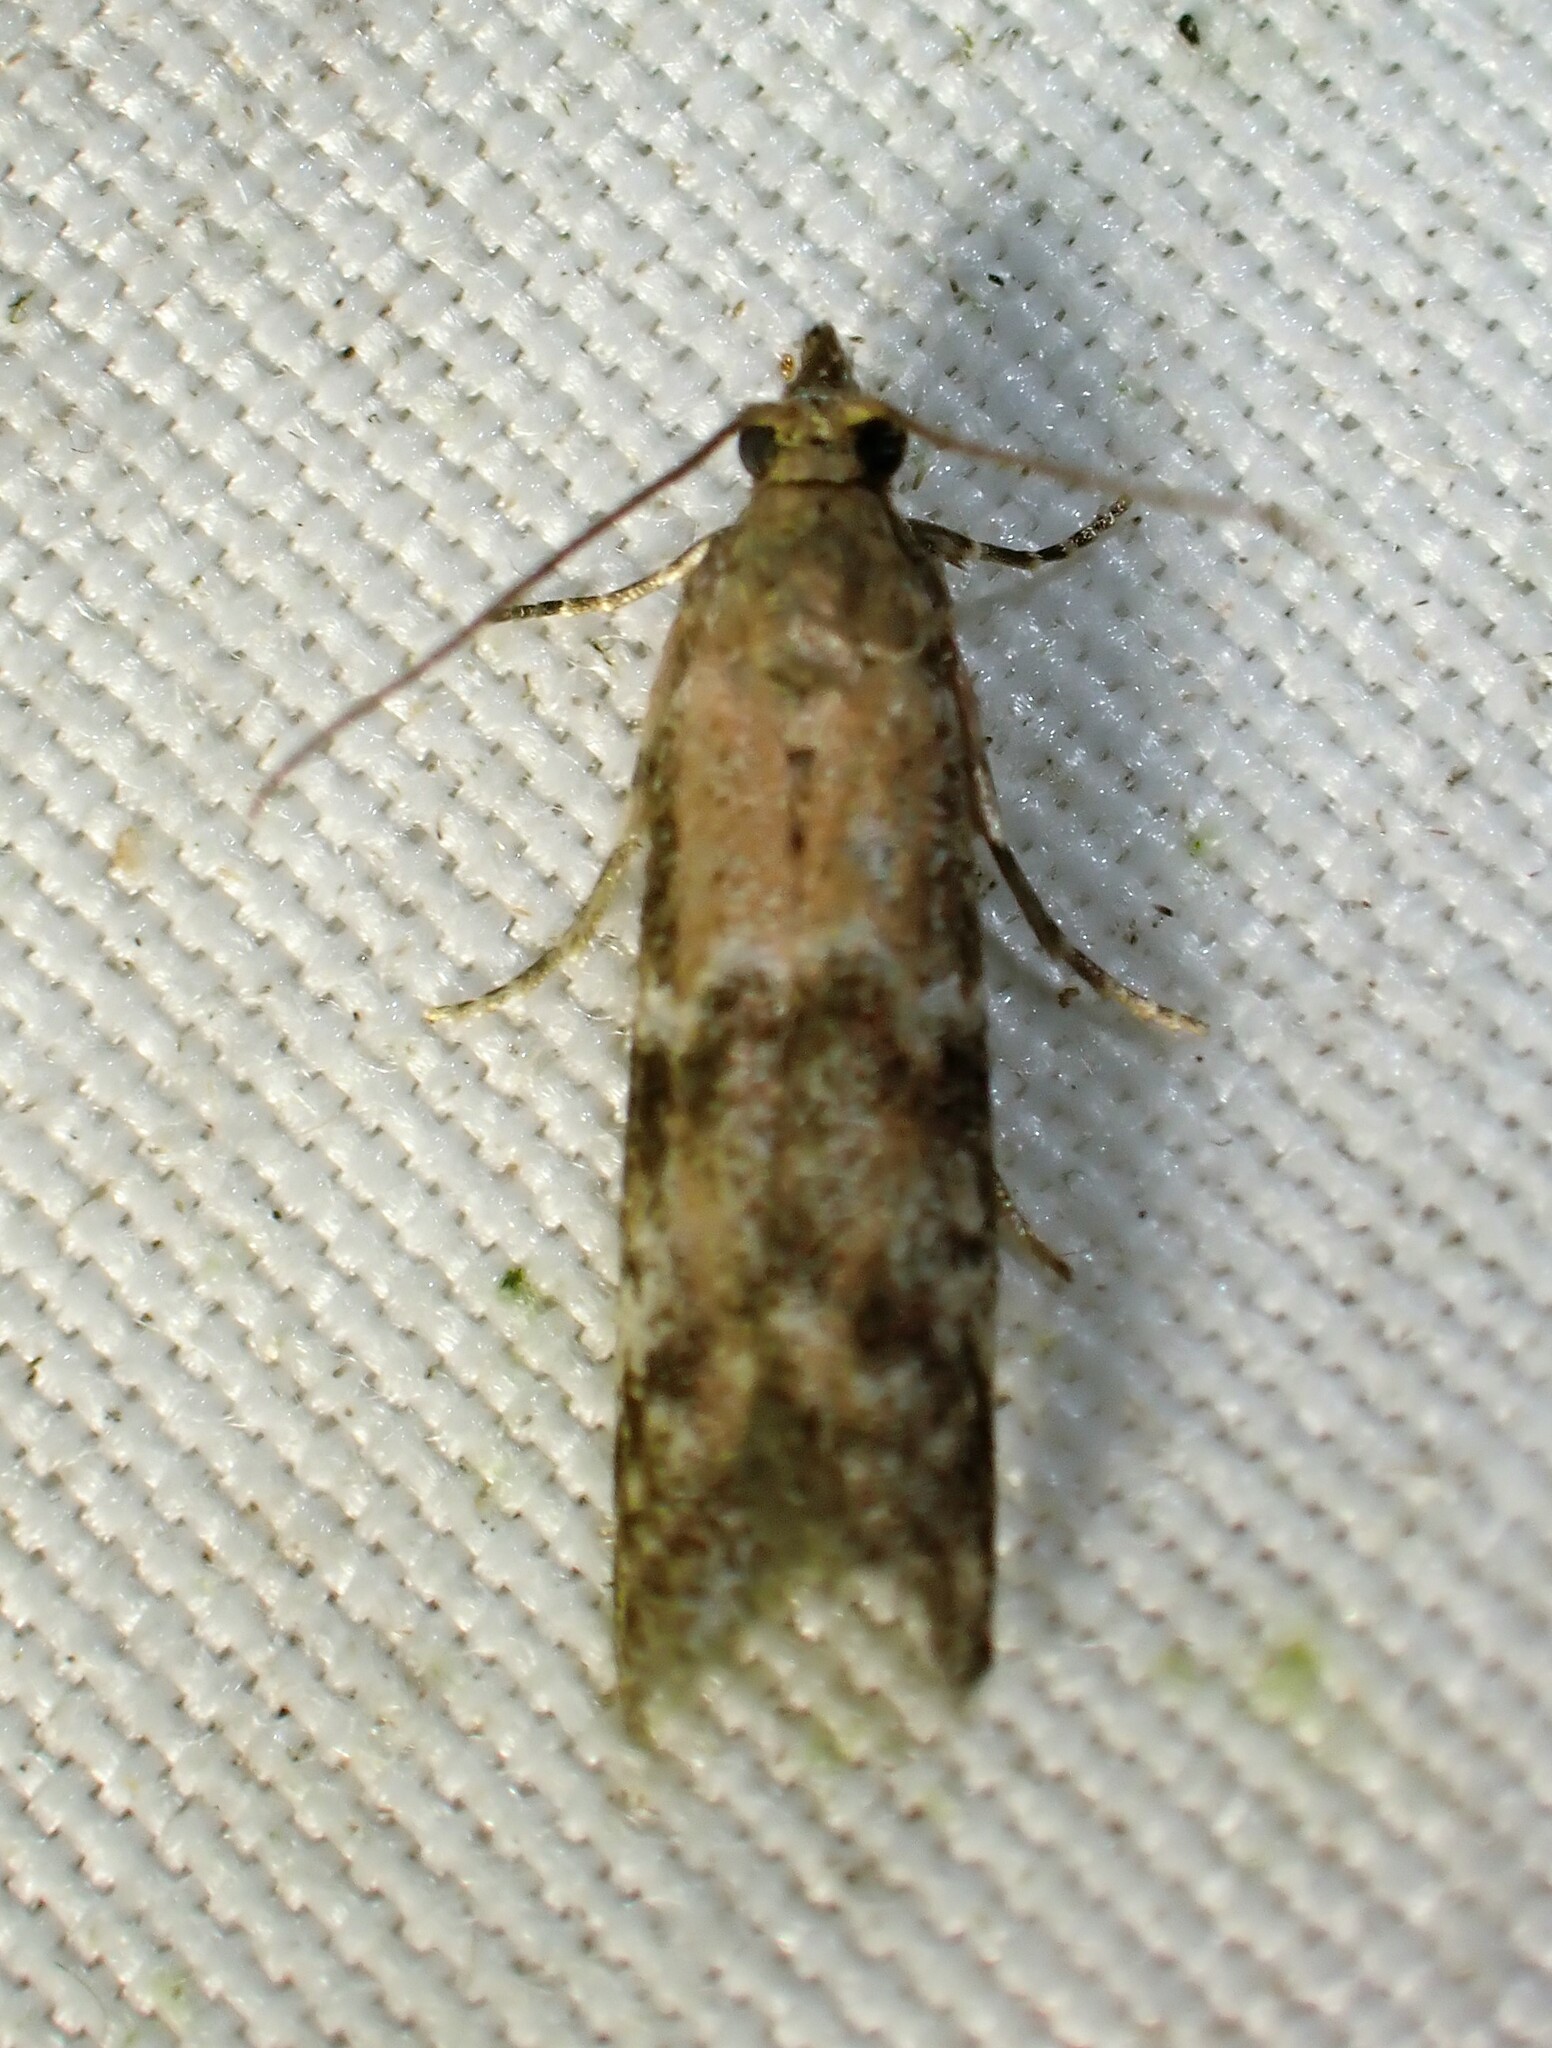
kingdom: Animalia
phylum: Arthropoda
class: Insecta
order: Lepidoptera
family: Pyralidae
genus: Vitula
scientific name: Vitula broweri
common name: Brower's vitula moth
